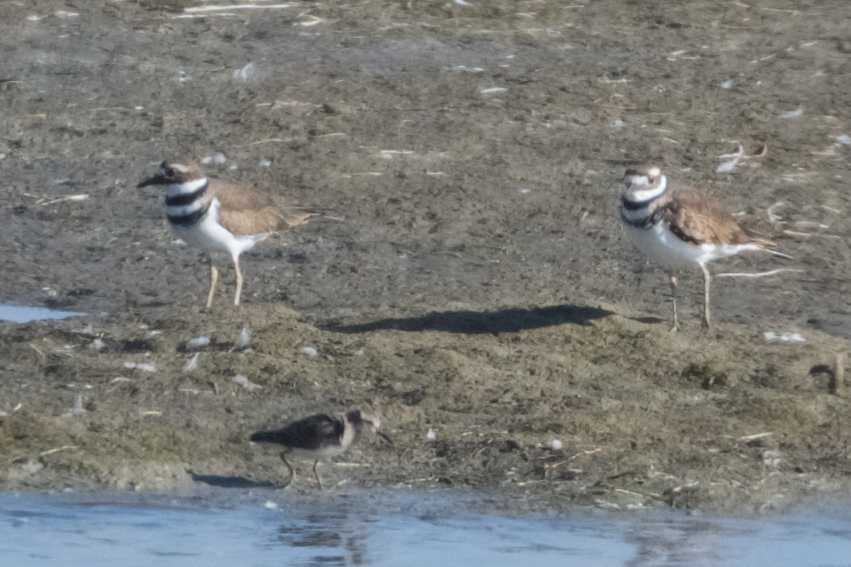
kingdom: Animalia
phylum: Chordata
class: Aves
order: Charadriiformes
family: Charadriidae
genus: Charadrius
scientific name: Charadrius vociferus
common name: Killdeer
